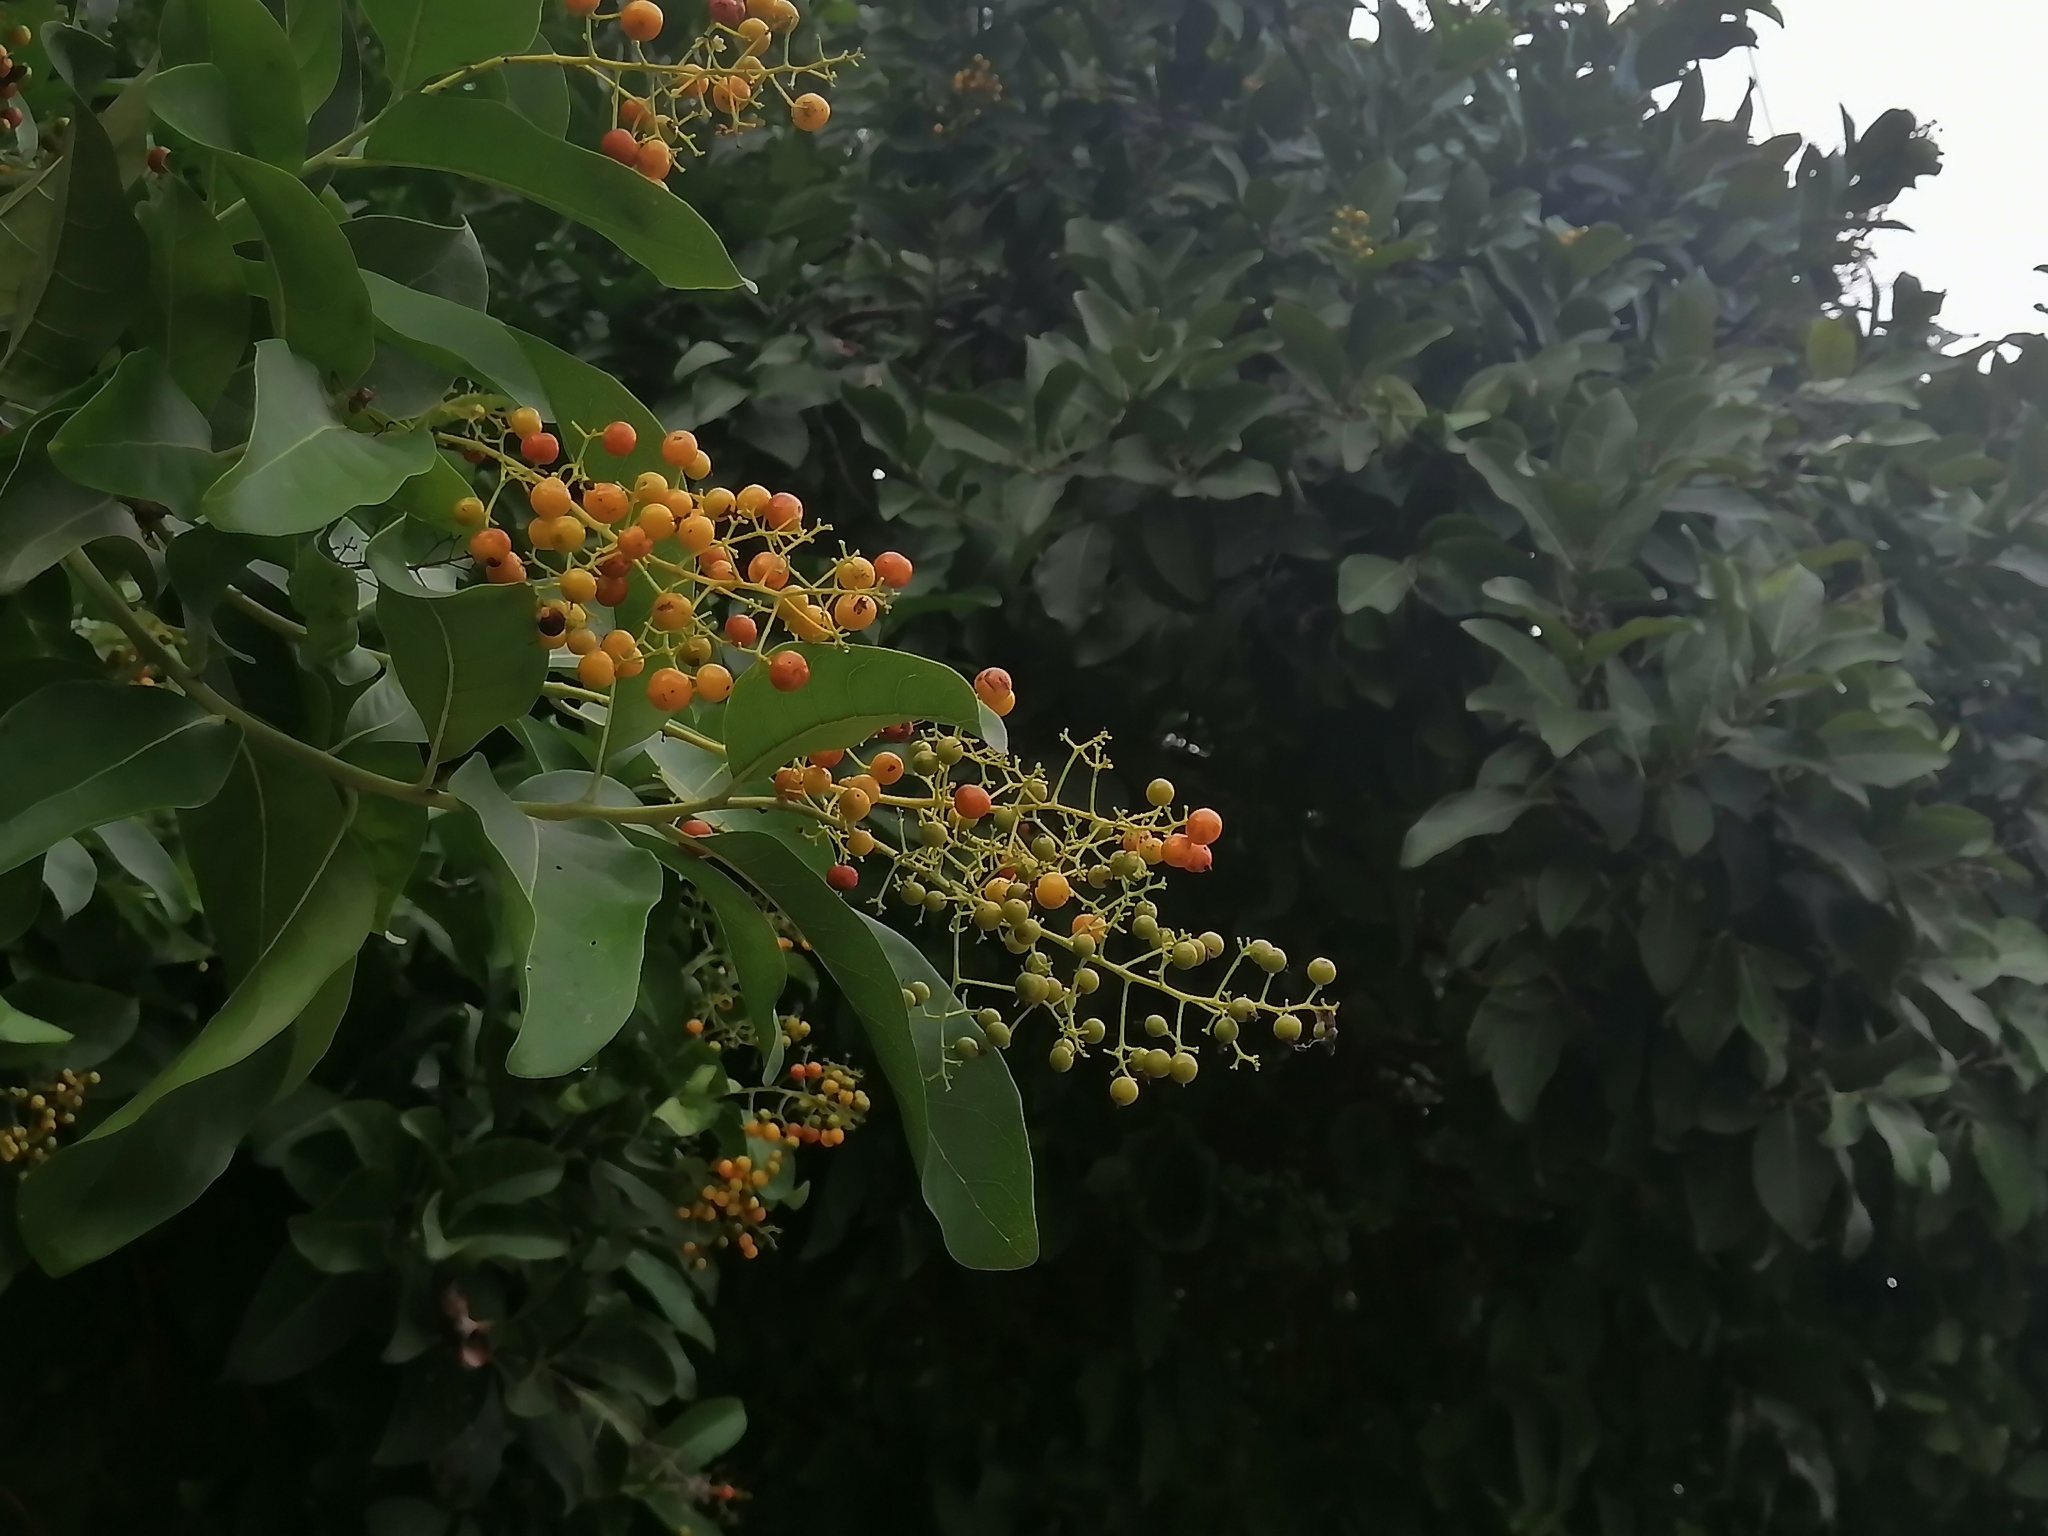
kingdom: Plantae
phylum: Tracheophyta
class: Magnoliopsida
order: Boraginales
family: Ehretiaceae
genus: Ehretia
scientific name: Ehretia tinifolia
